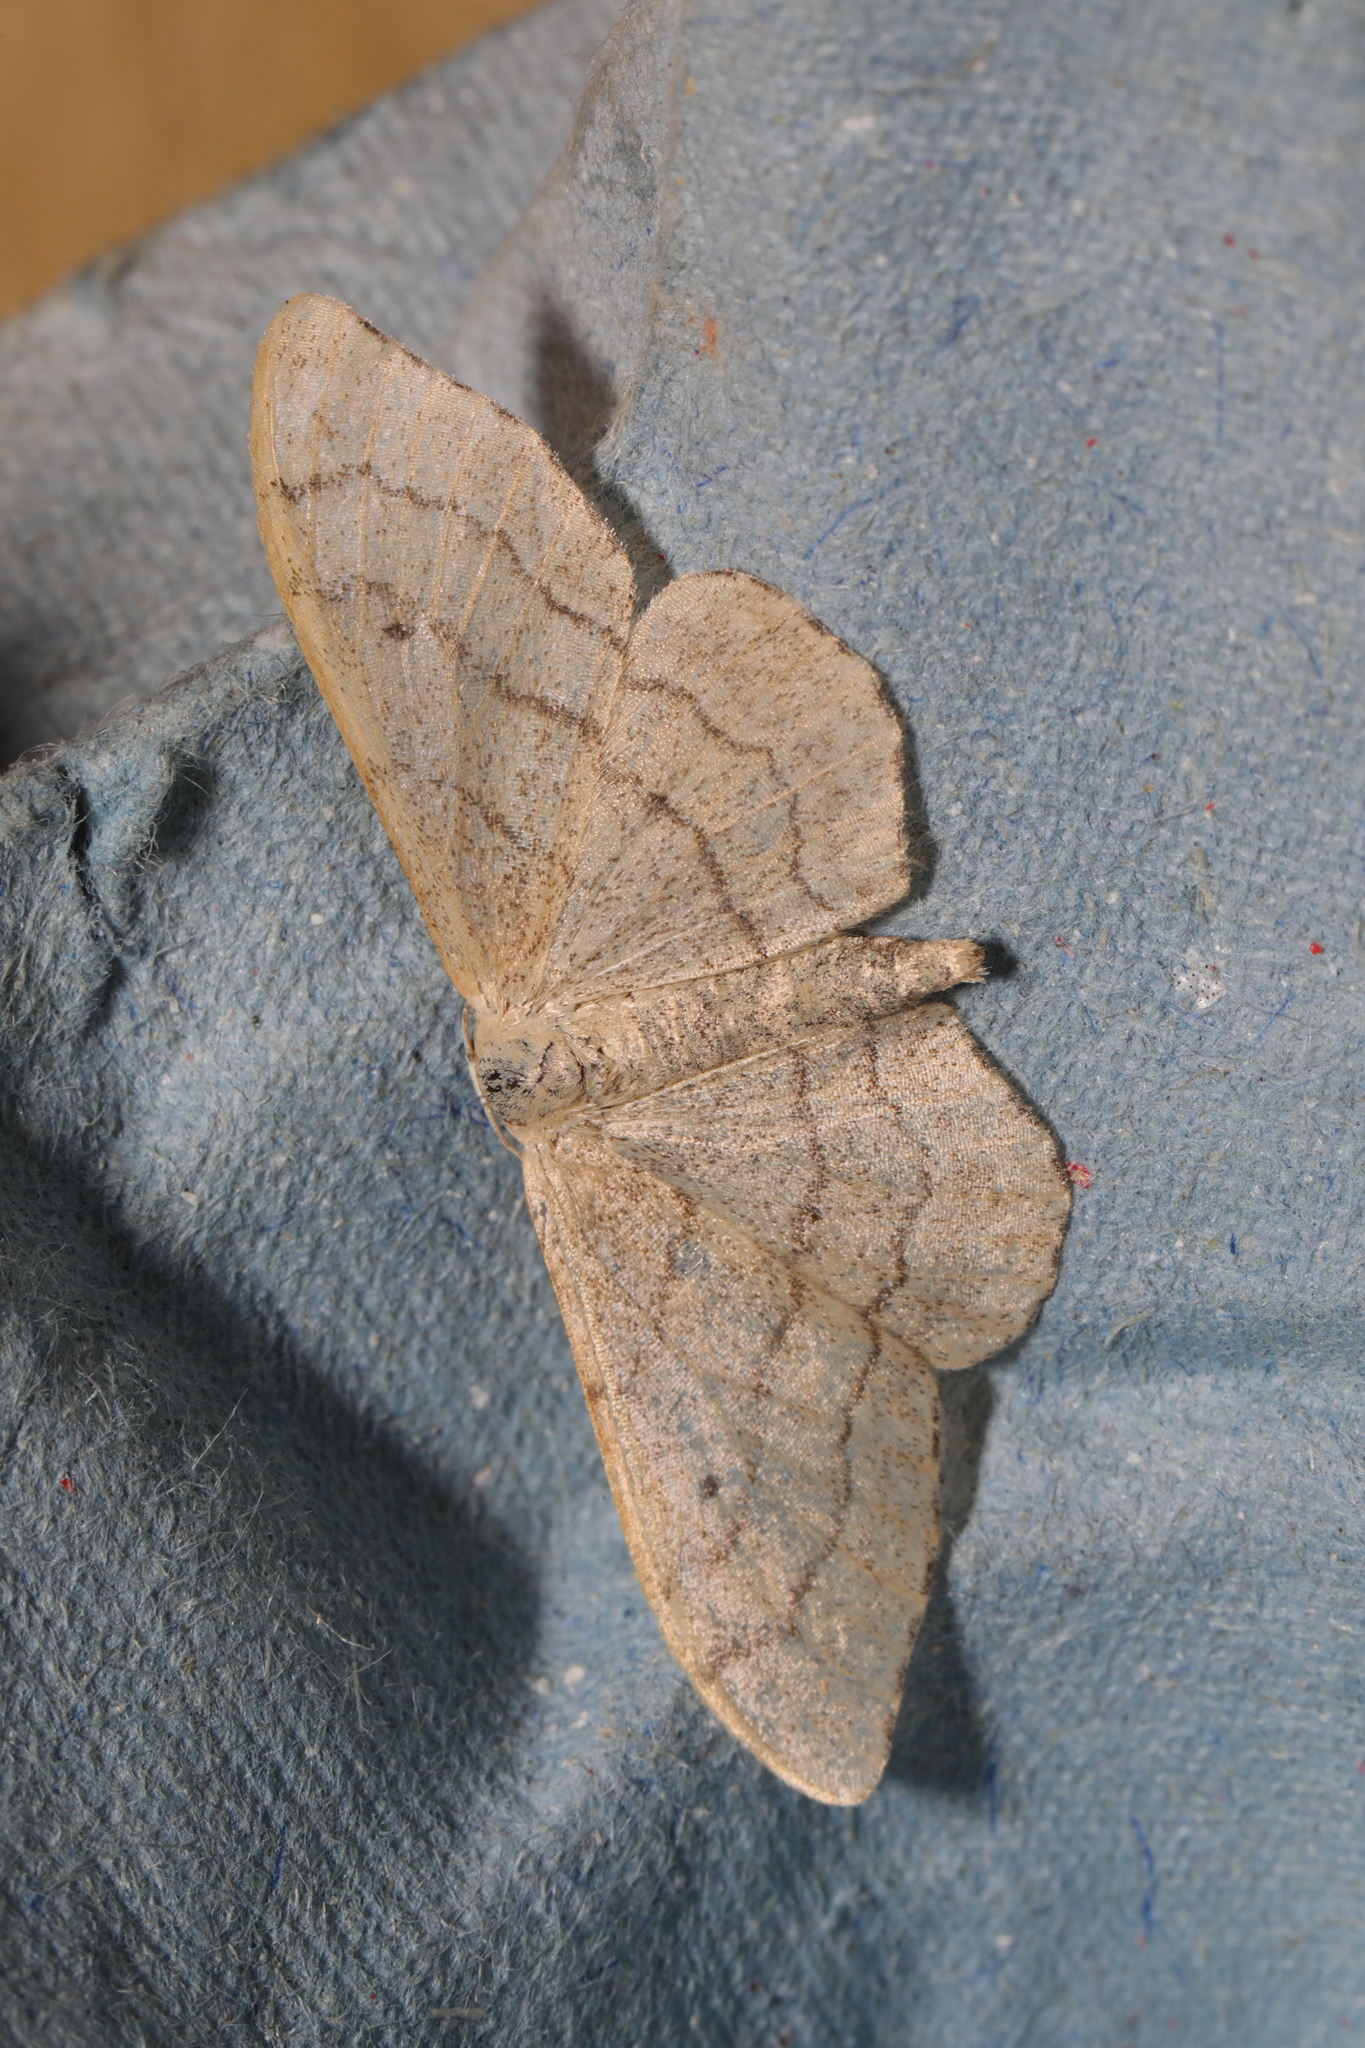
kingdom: Animalia
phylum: Arthropoda
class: Insecta
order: Lepidoptera
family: Geometridae
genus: Idaea
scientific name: Idaea aversata
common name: Riband wave
